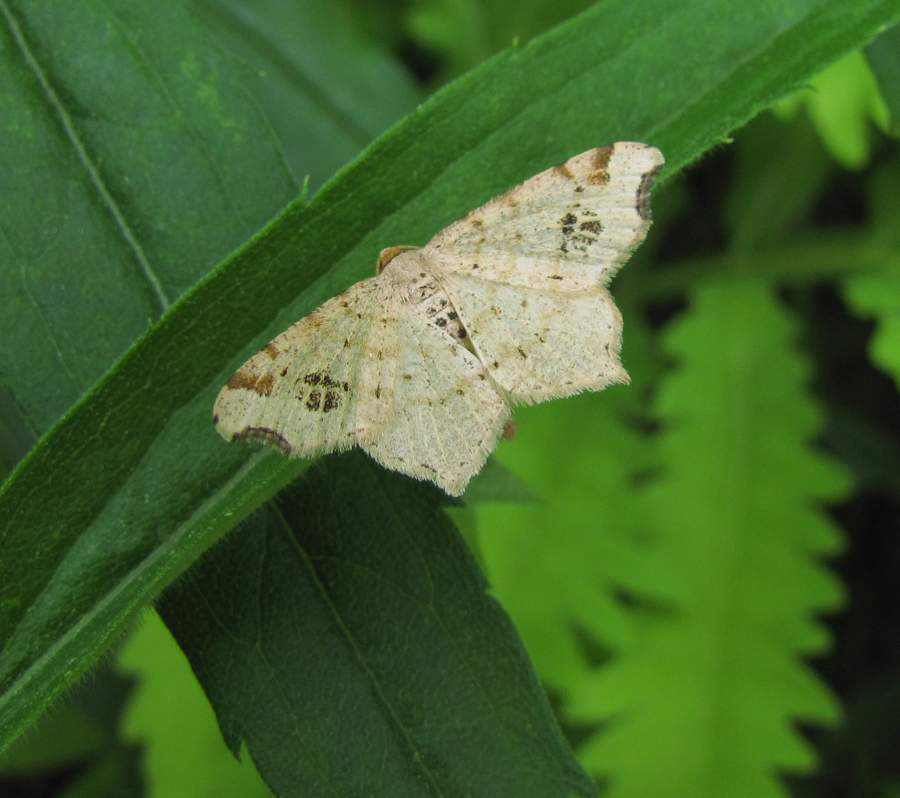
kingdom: Animalia
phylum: Arthropoda
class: Insecta
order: Lepidoptera
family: Geometridae
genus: Macaria
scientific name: Macaria aemulataria
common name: Common angle
